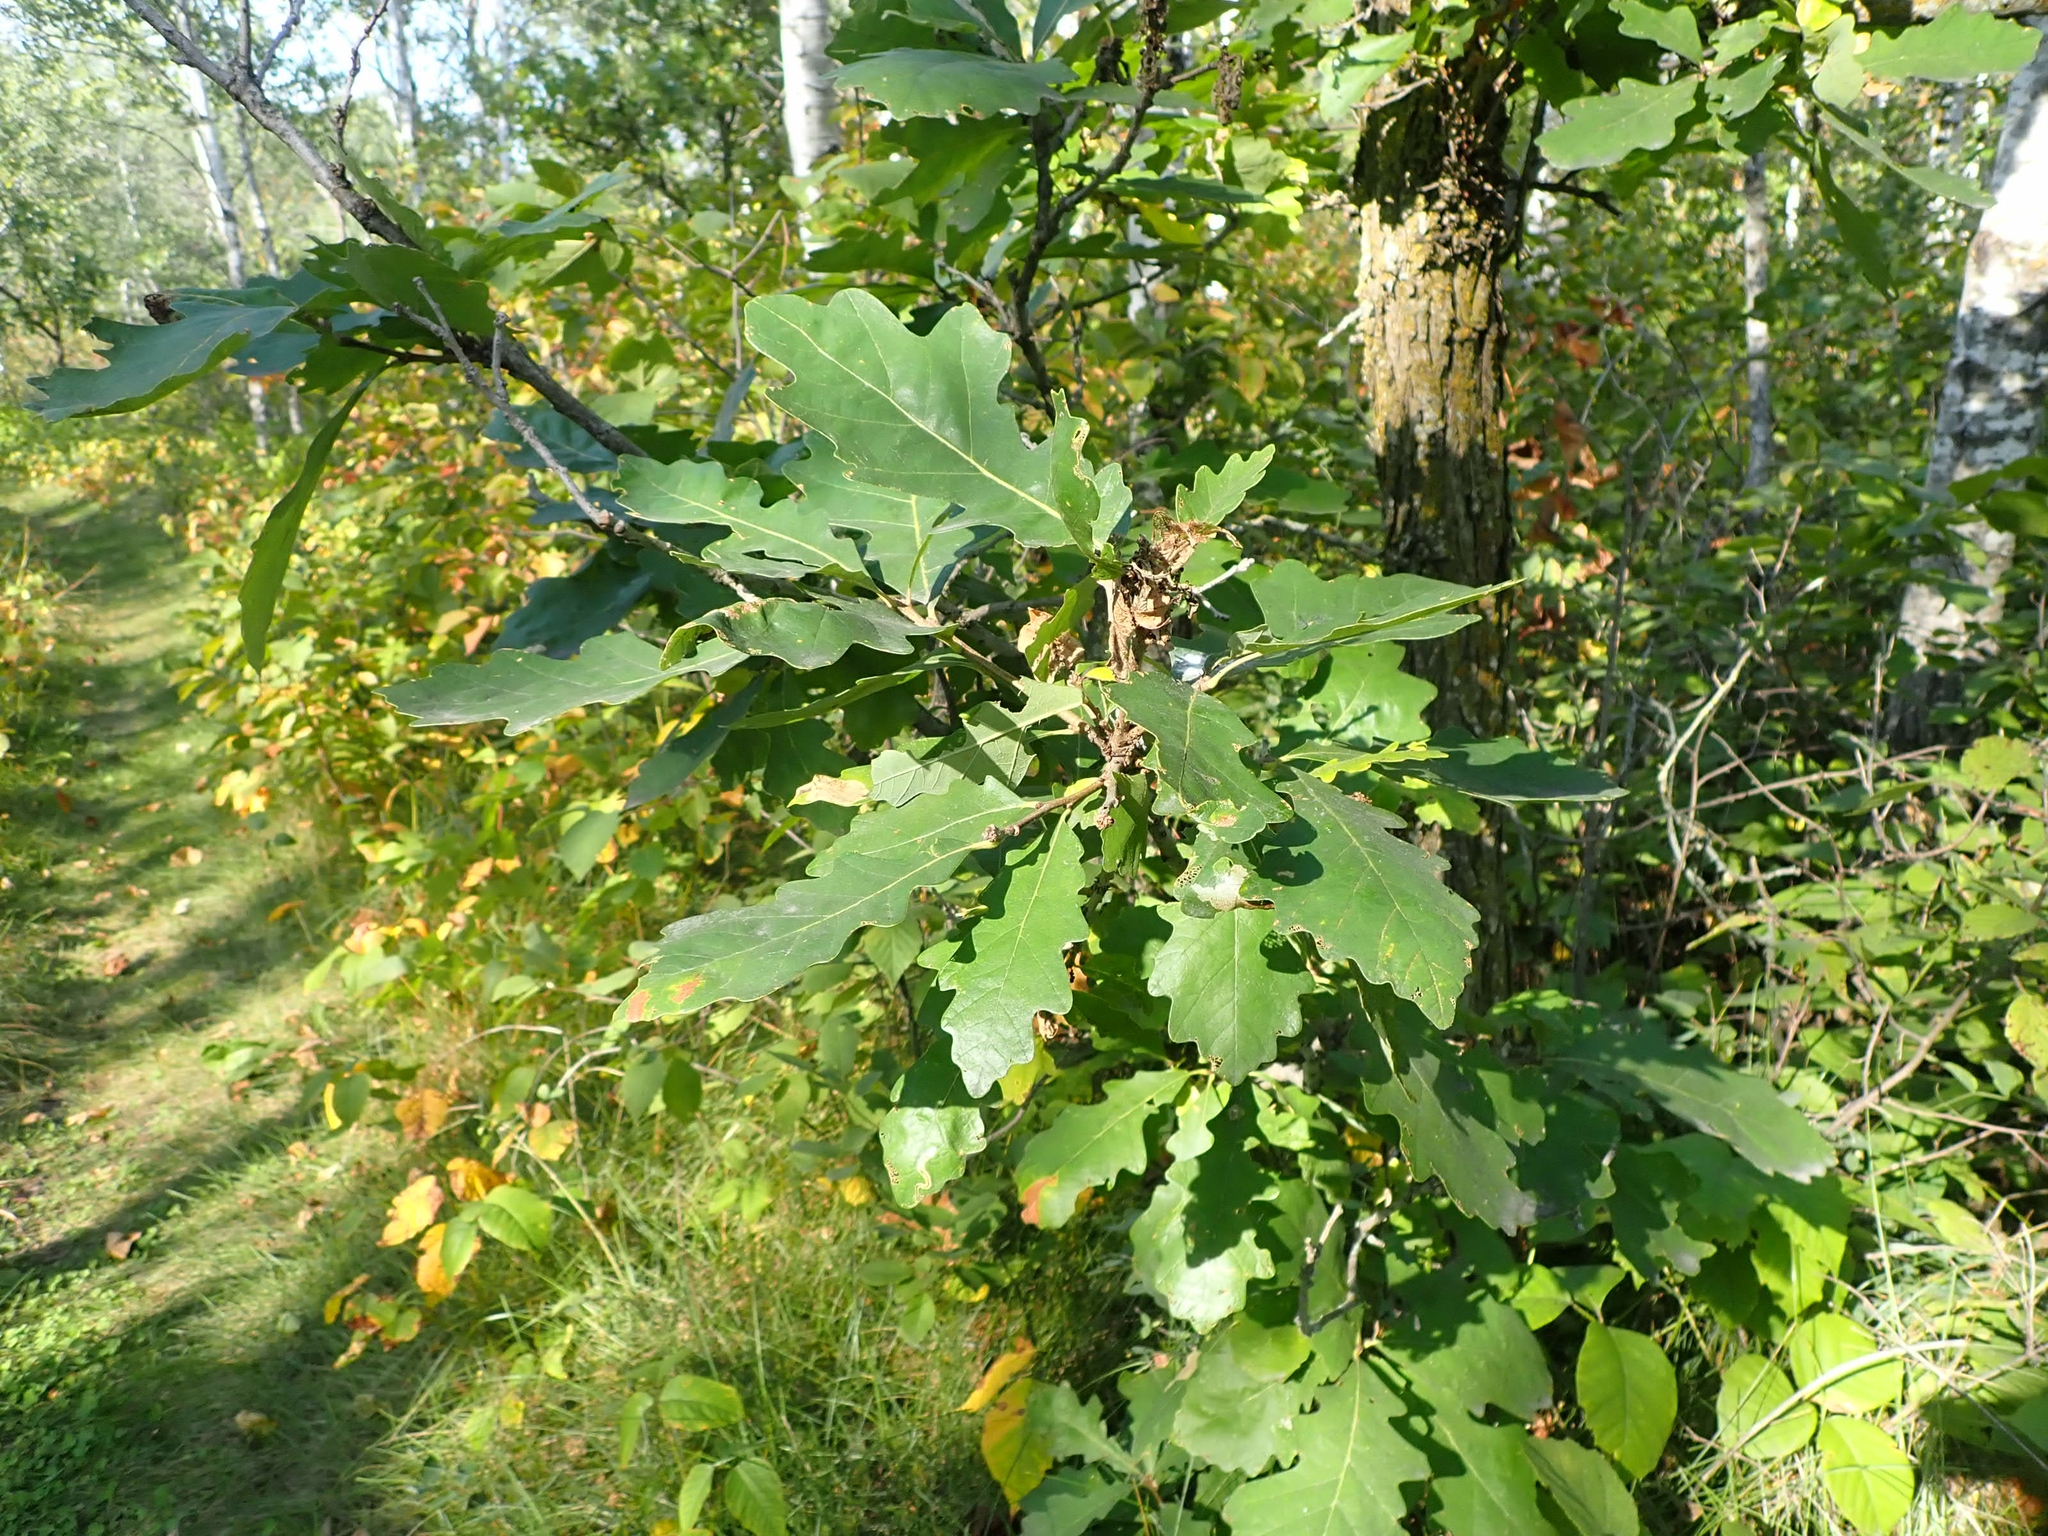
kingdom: Plantae
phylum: Tracheophyta
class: Magnoliopsida
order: Fagales
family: Fagaceae
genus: Quercus
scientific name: Quercus macrocarpa
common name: Bur oak
